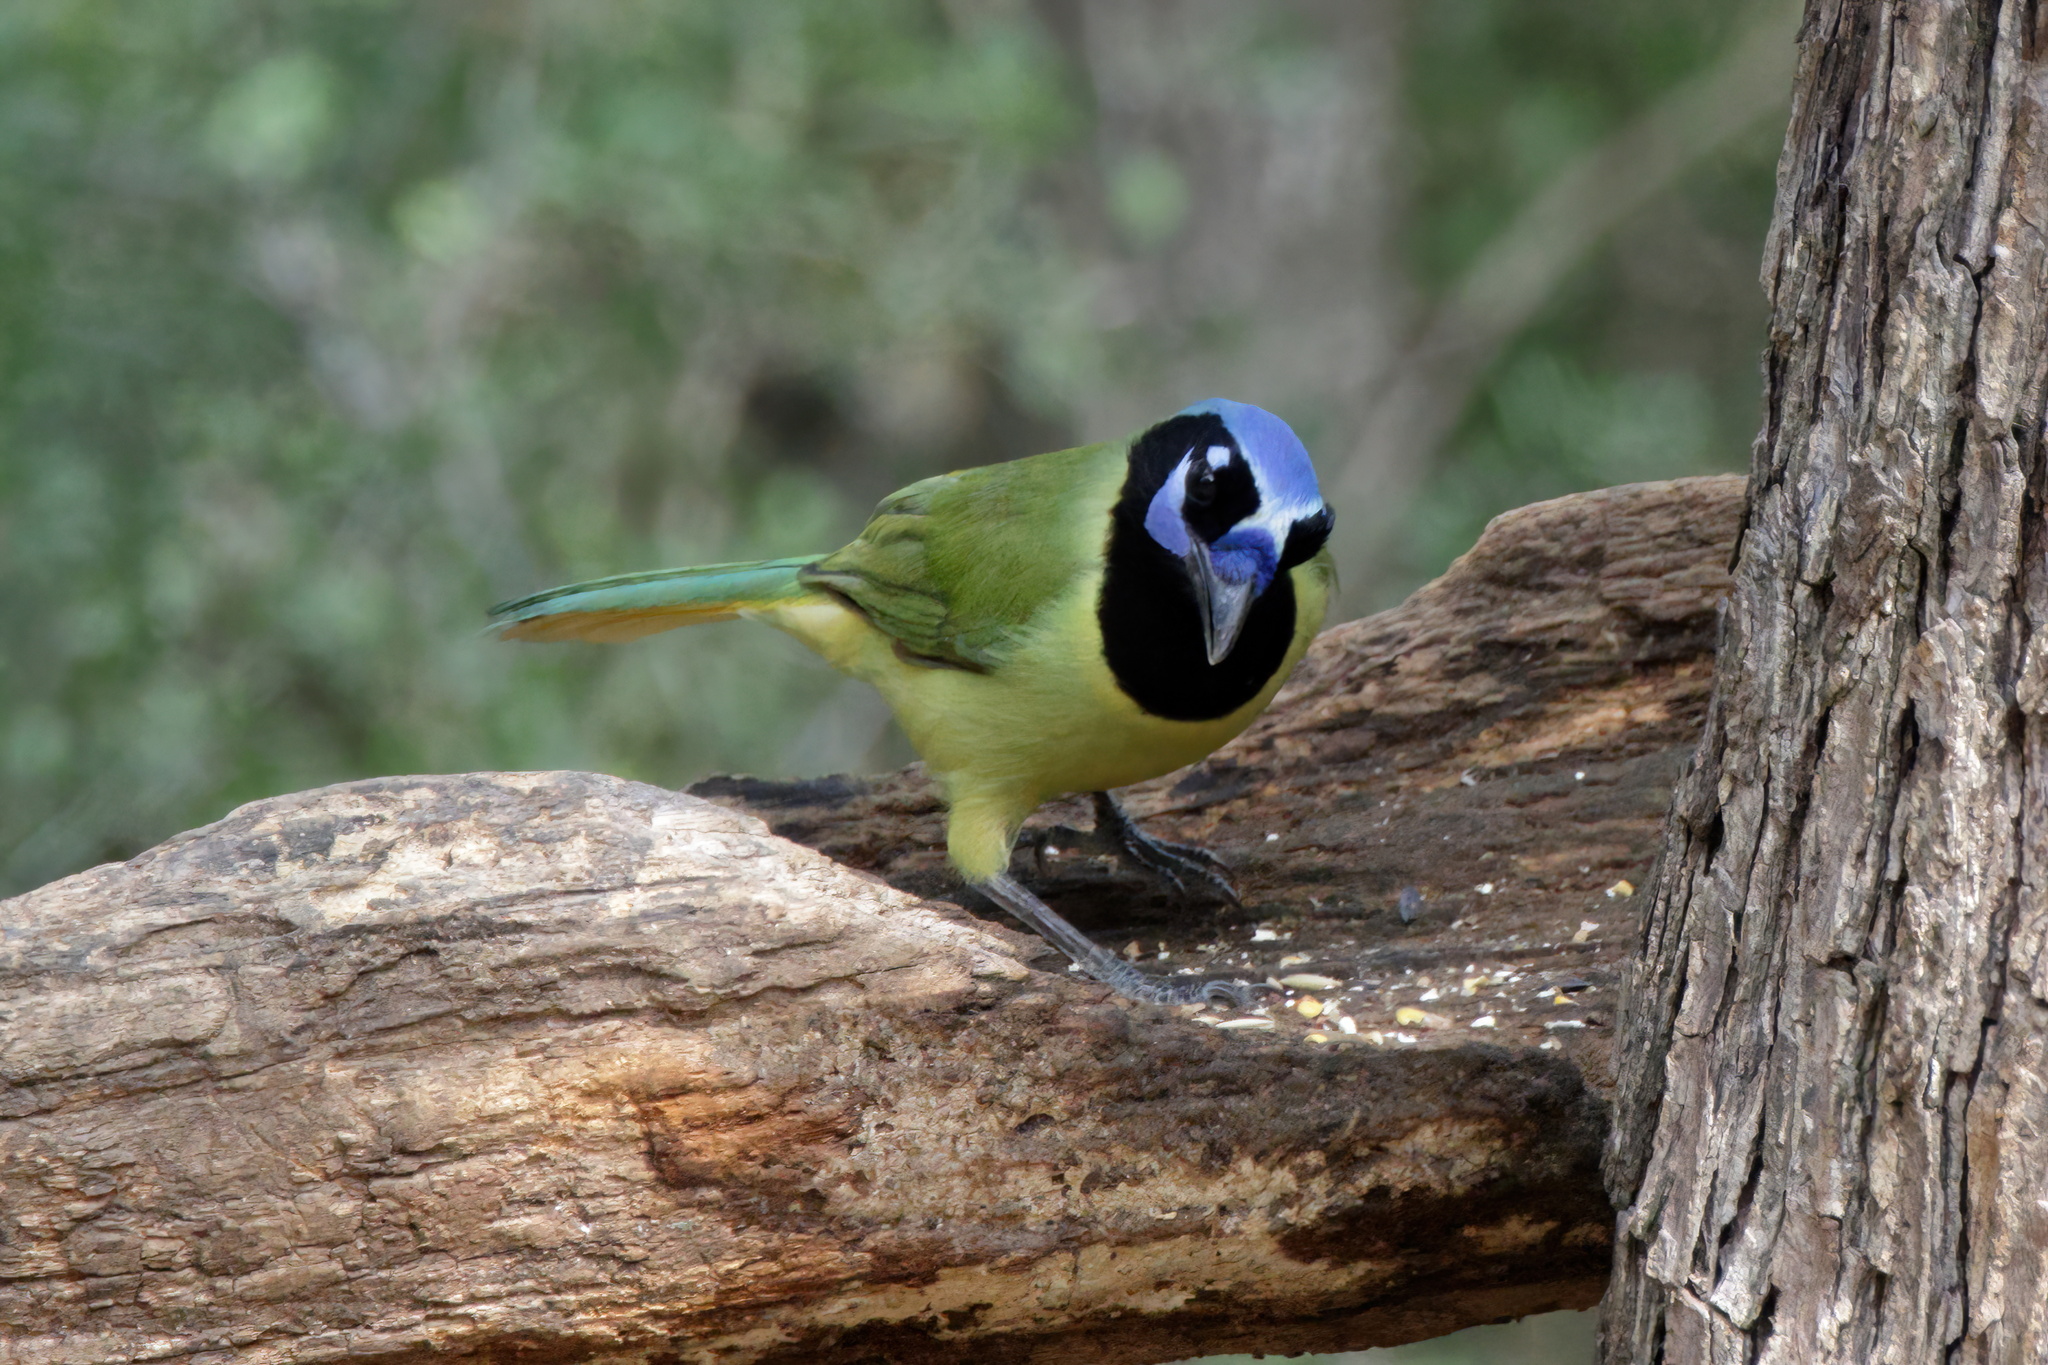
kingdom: Animalia
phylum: Chordata
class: Aves
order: Passeriformes
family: Corvidae
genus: Cyanocorax
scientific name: Cyanocorax yncas
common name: Green jay
